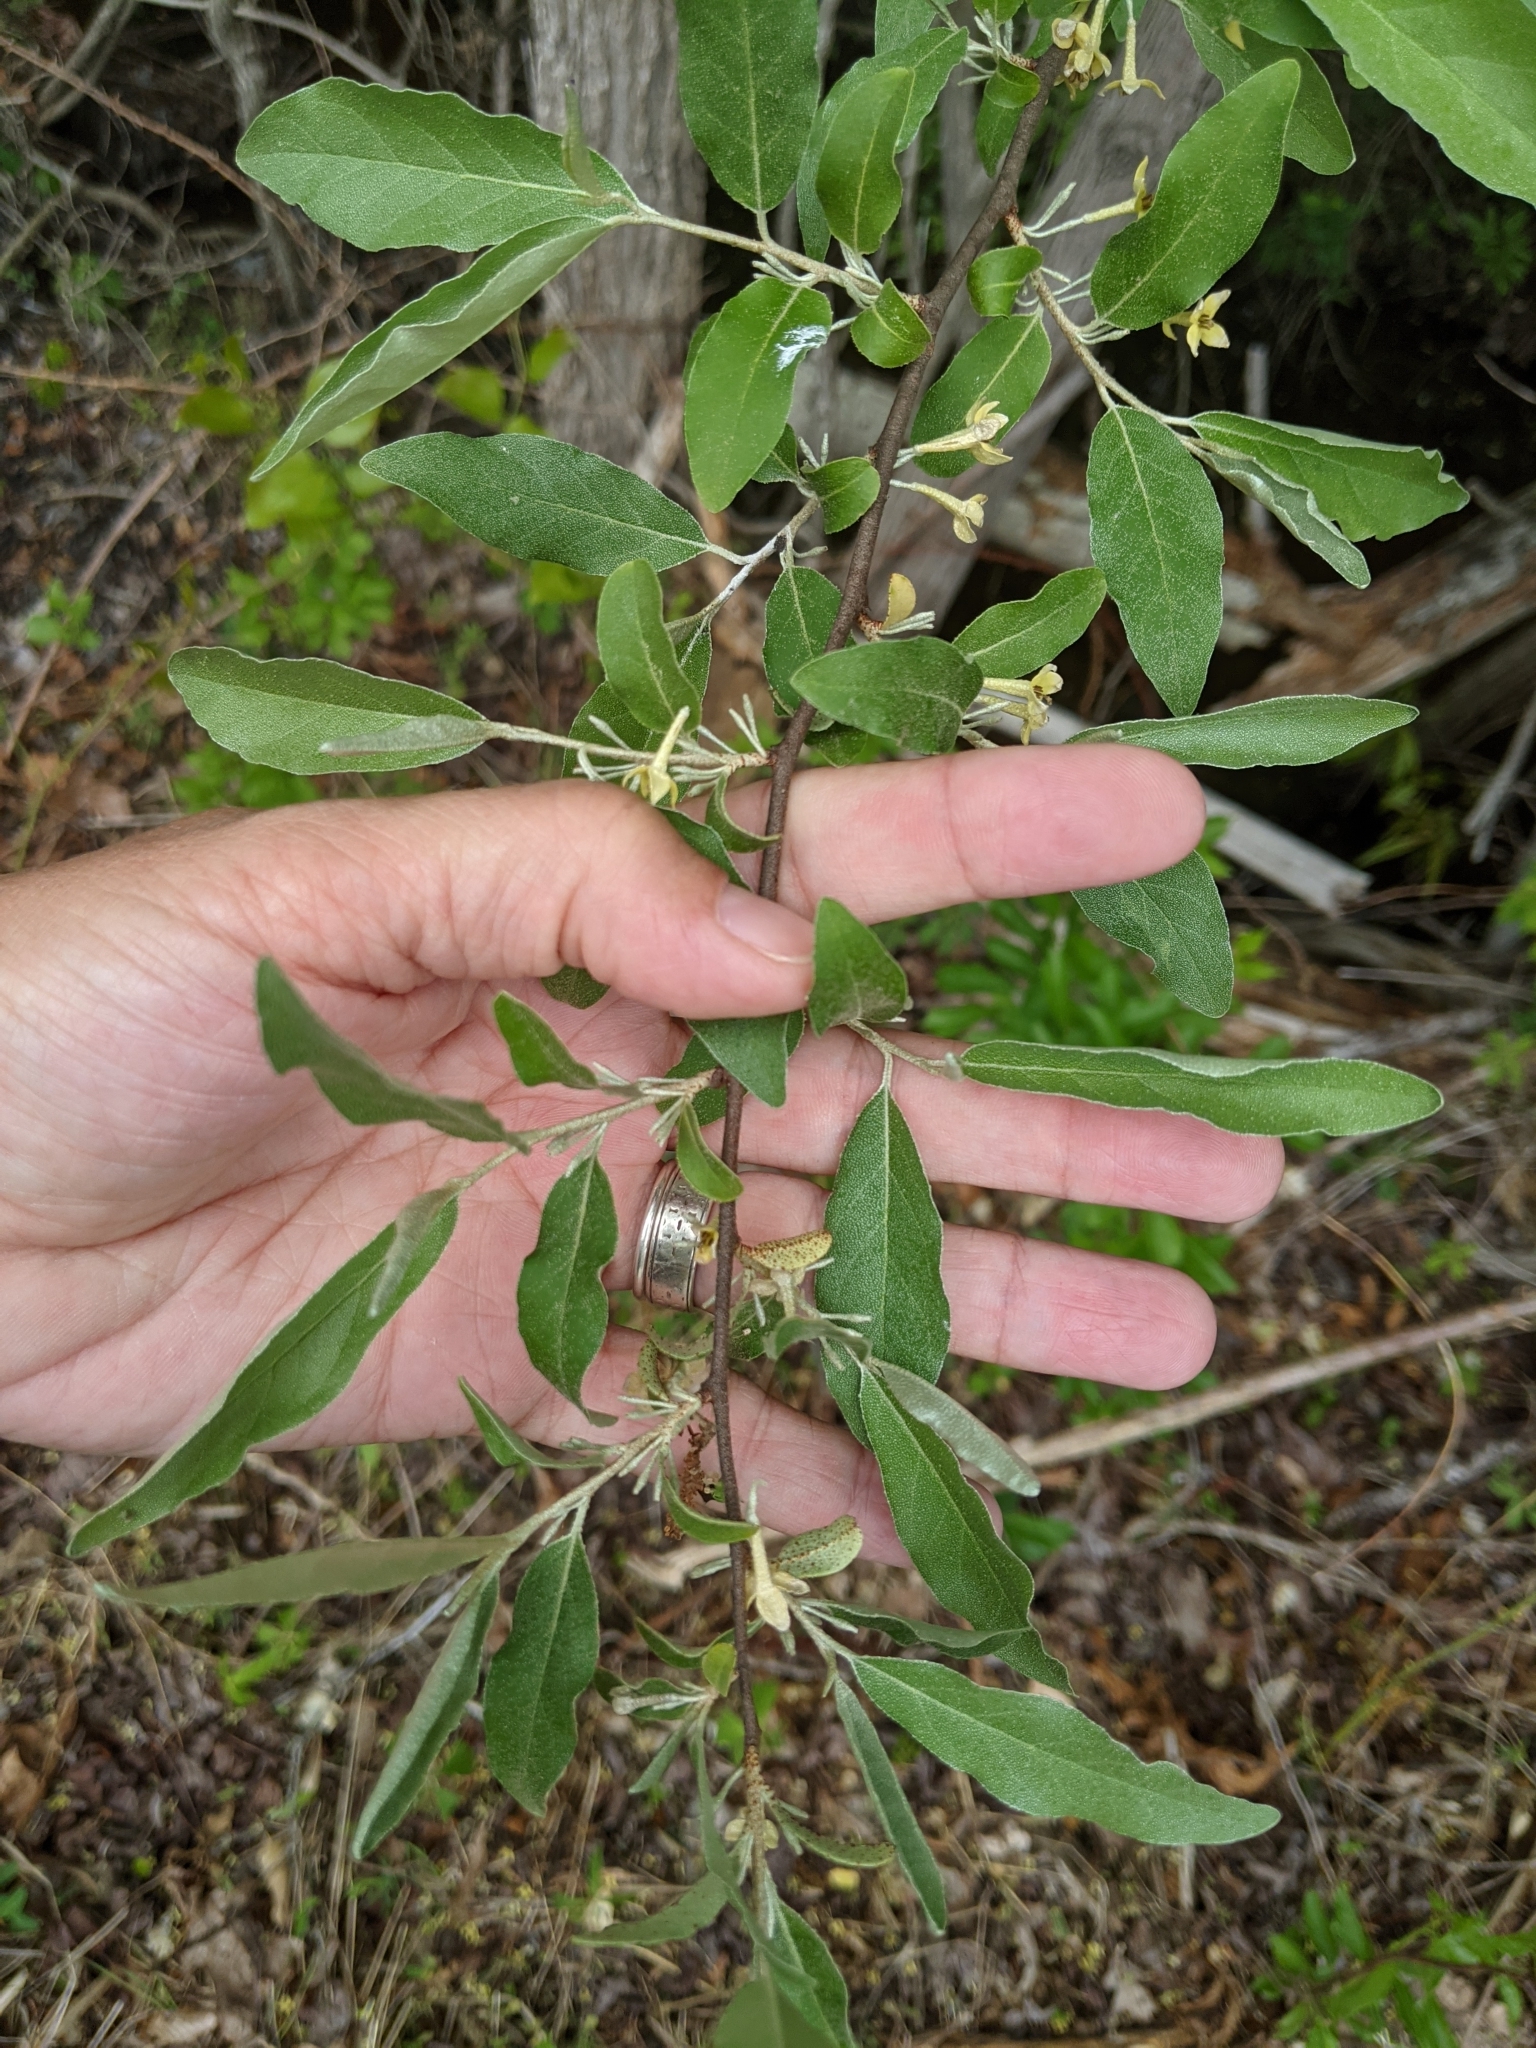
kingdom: Plantae
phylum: Tracheophyta
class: Magnoliopsida
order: Rosales
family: Elaeagnaceae
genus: Elaeagnus
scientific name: Elaeagnus umbellata
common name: Autumn olive
